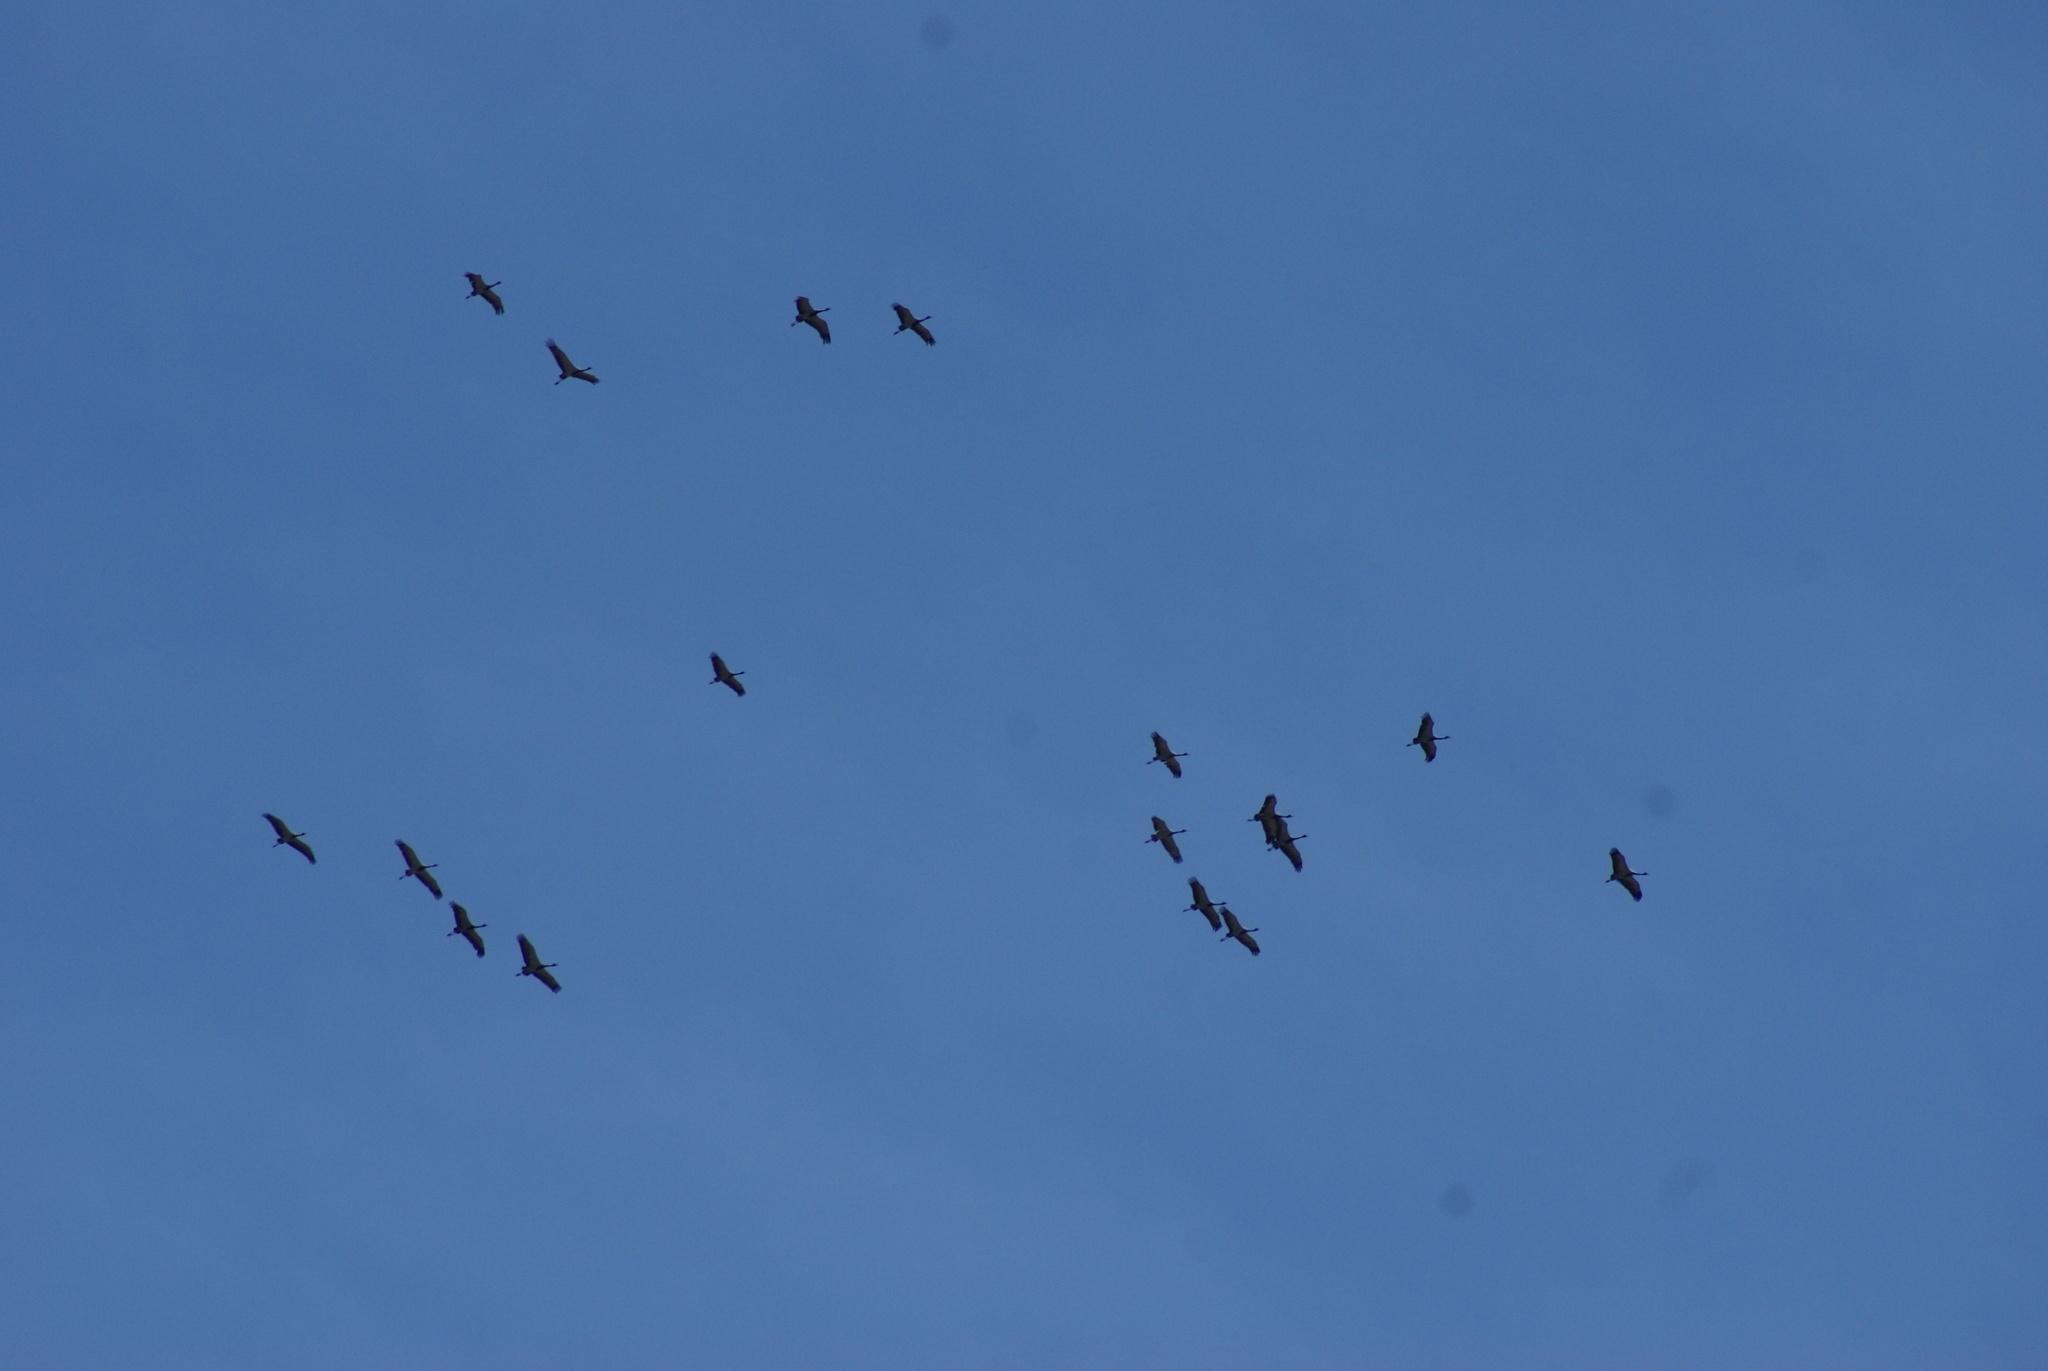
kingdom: Animalia
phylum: Chordata
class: Aves
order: Gruiformes
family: Gruidae
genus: Anthropoides
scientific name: Anthropoides virgo
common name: Demoiselle crane
